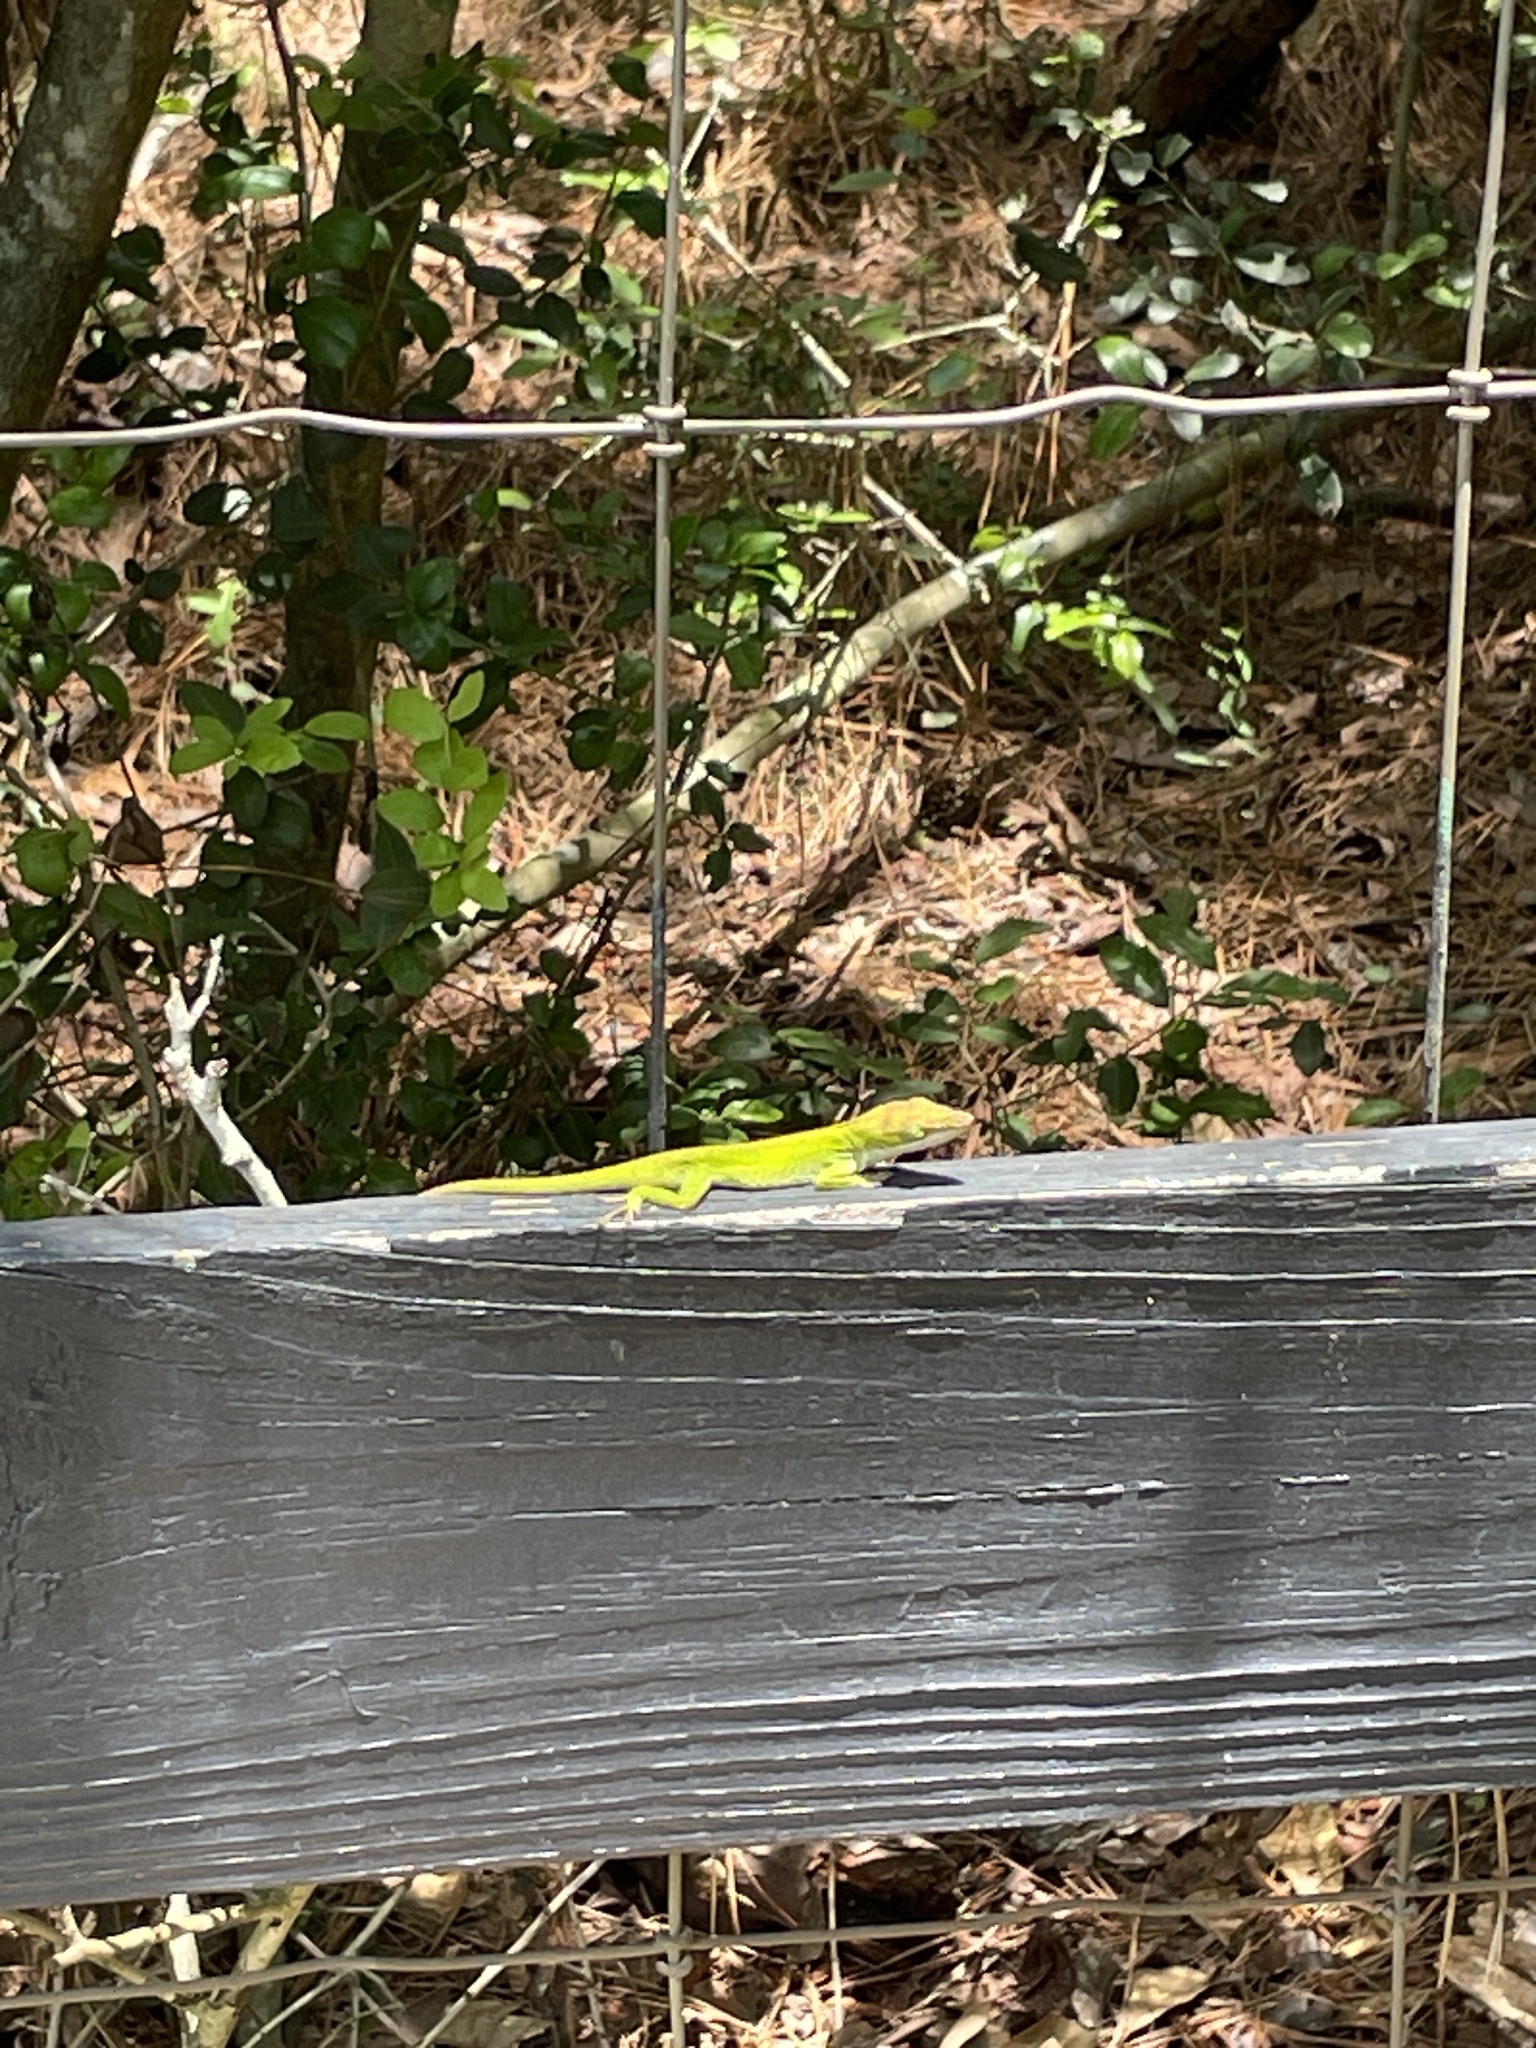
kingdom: Animalia
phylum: Chordata
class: Squamata
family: Dactyloidae
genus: Anolis
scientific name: Anolis carolinensis
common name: Green anole
